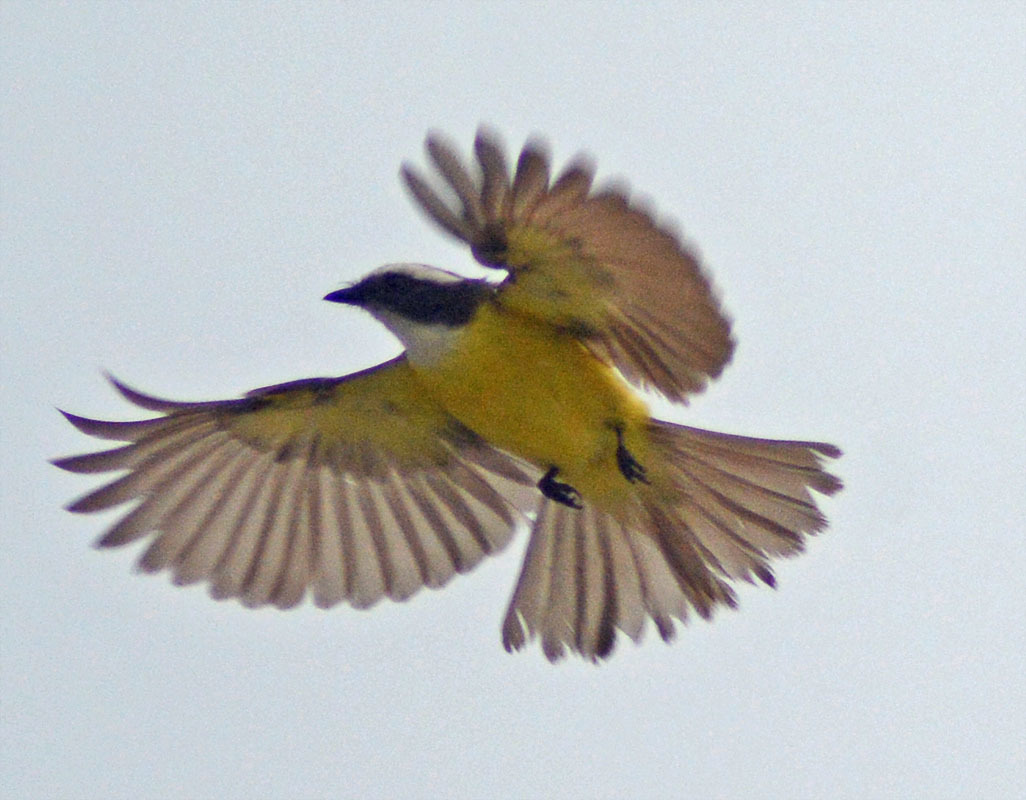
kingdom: Animalia
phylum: Chordata
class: Aves
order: Passeriformes
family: Tyrannidae
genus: Myiozetetes
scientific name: Myiozetetes similis
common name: Social flycatcher
